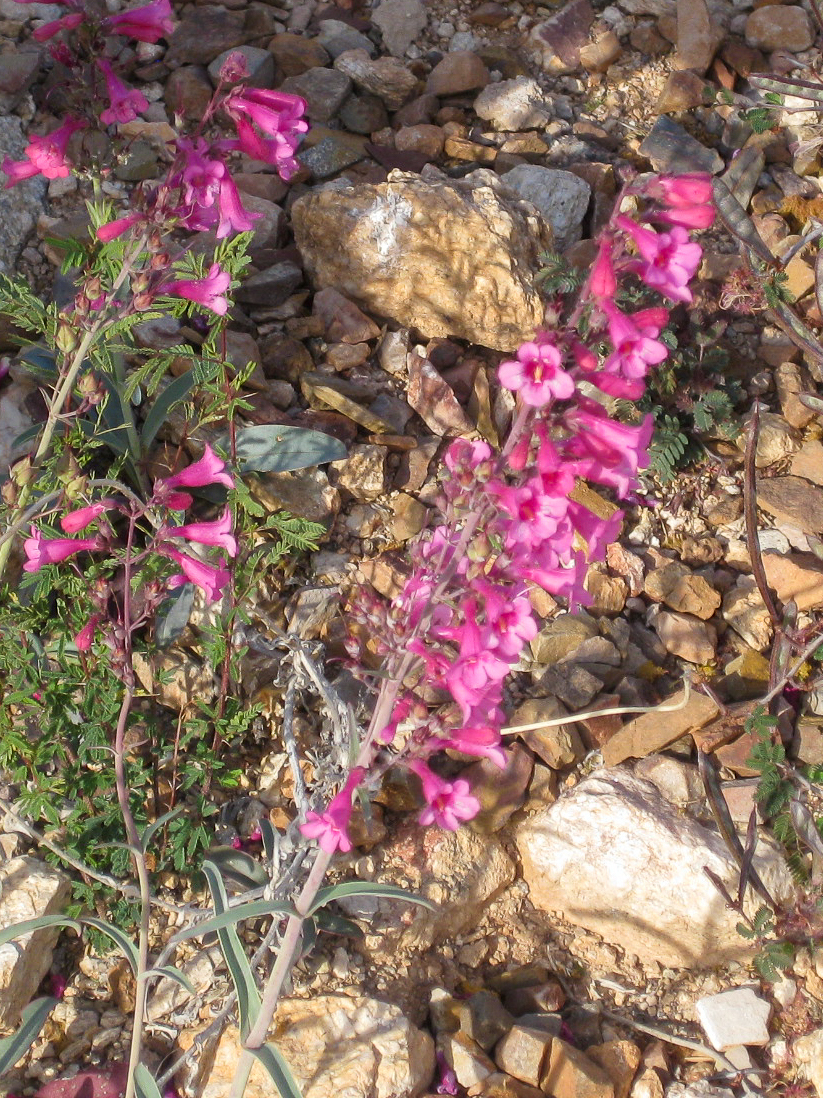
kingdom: Plantae
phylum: Tracheophyta
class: Magnoliopsida
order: Lamiales
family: Plantaginaceae
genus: Penstemon
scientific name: Penstemon parryi
